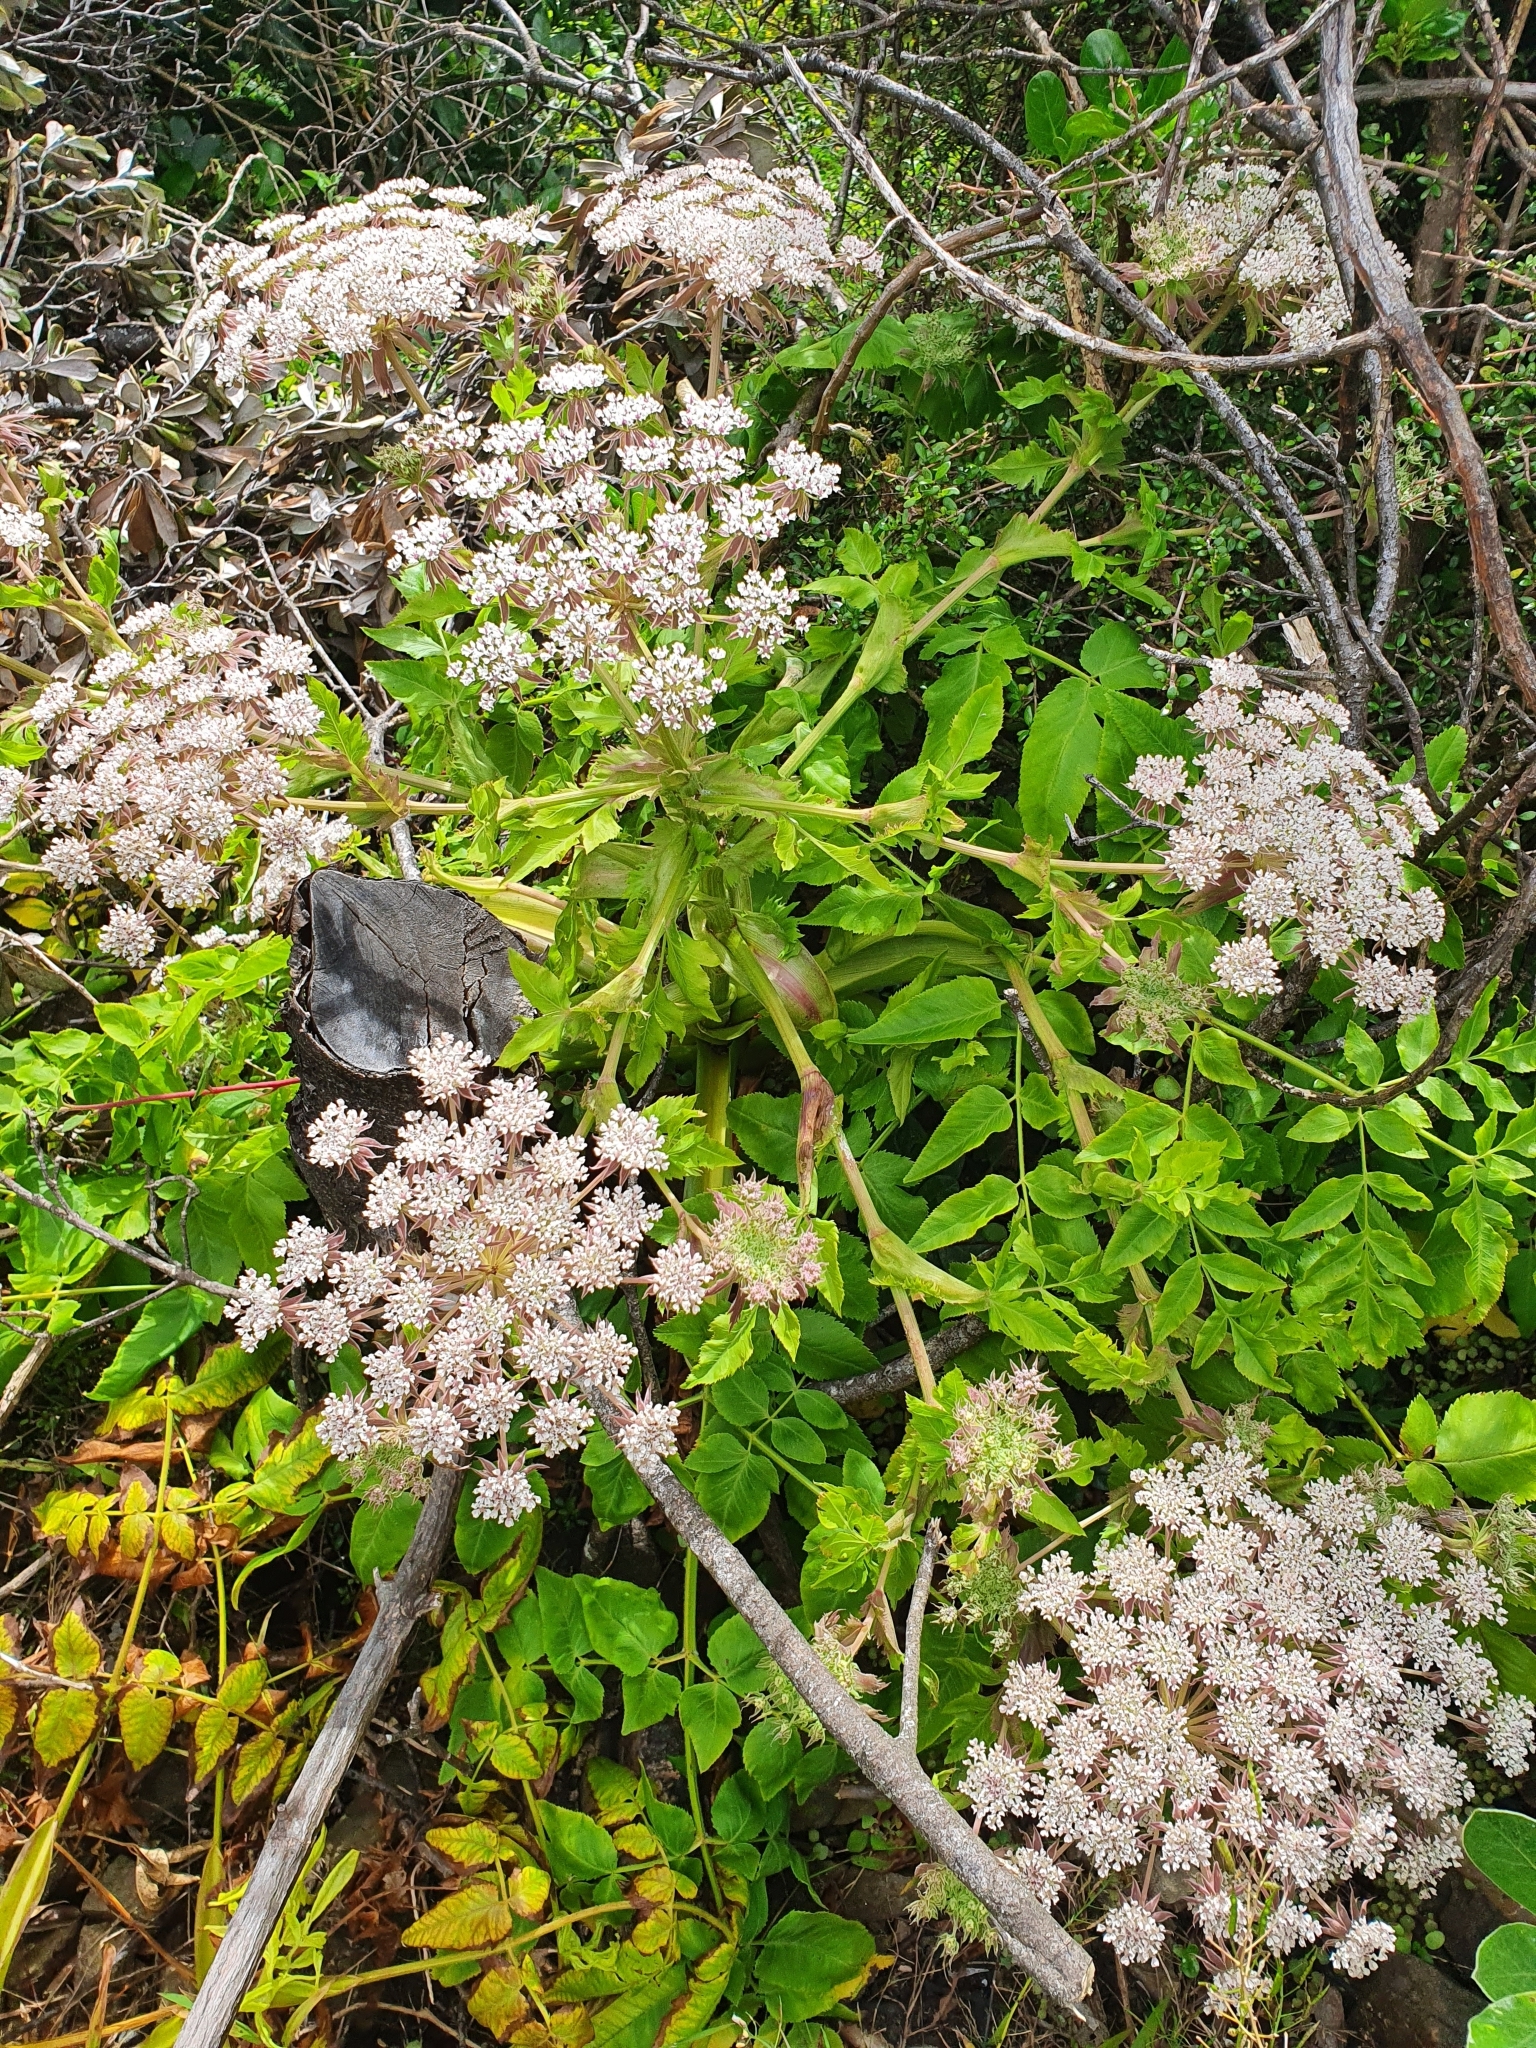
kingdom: Plantae
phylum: Tracheophyta
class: Magnoliopsida
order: Apiales
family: Apiaceae
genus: Daucus
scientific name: Daucus decipiens
